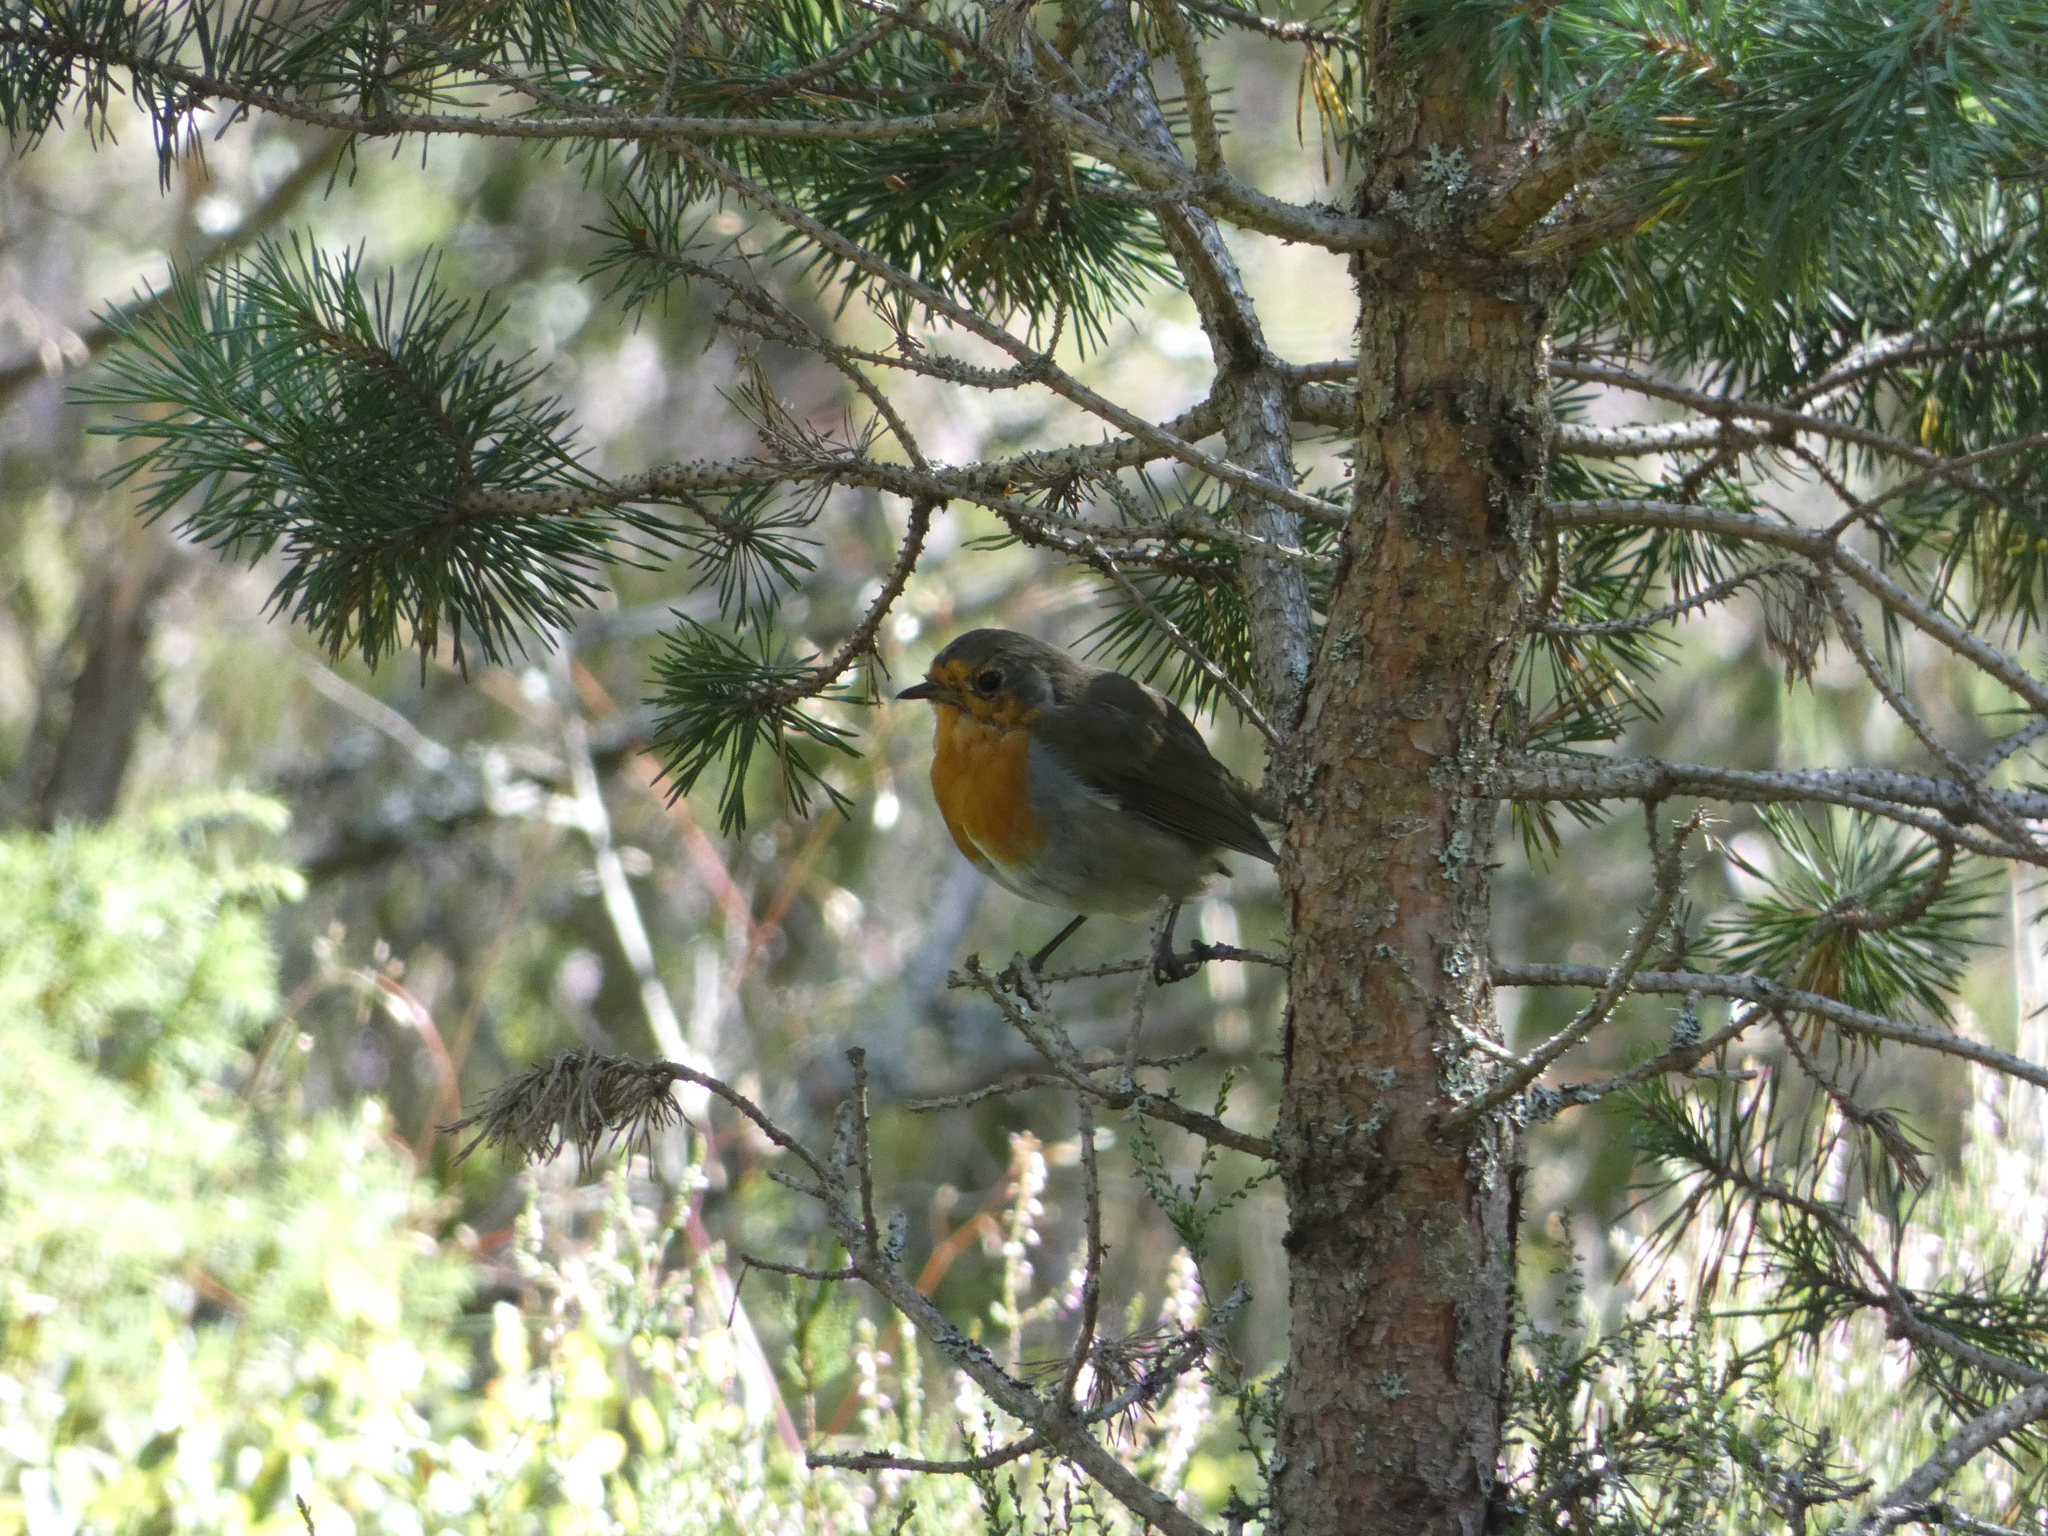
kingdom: Animalia
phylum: Chordata
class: Aves
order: Passeriformes
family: Muscicapidae
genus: Erithacus
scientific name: Erithacus rubecula
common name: European robin
